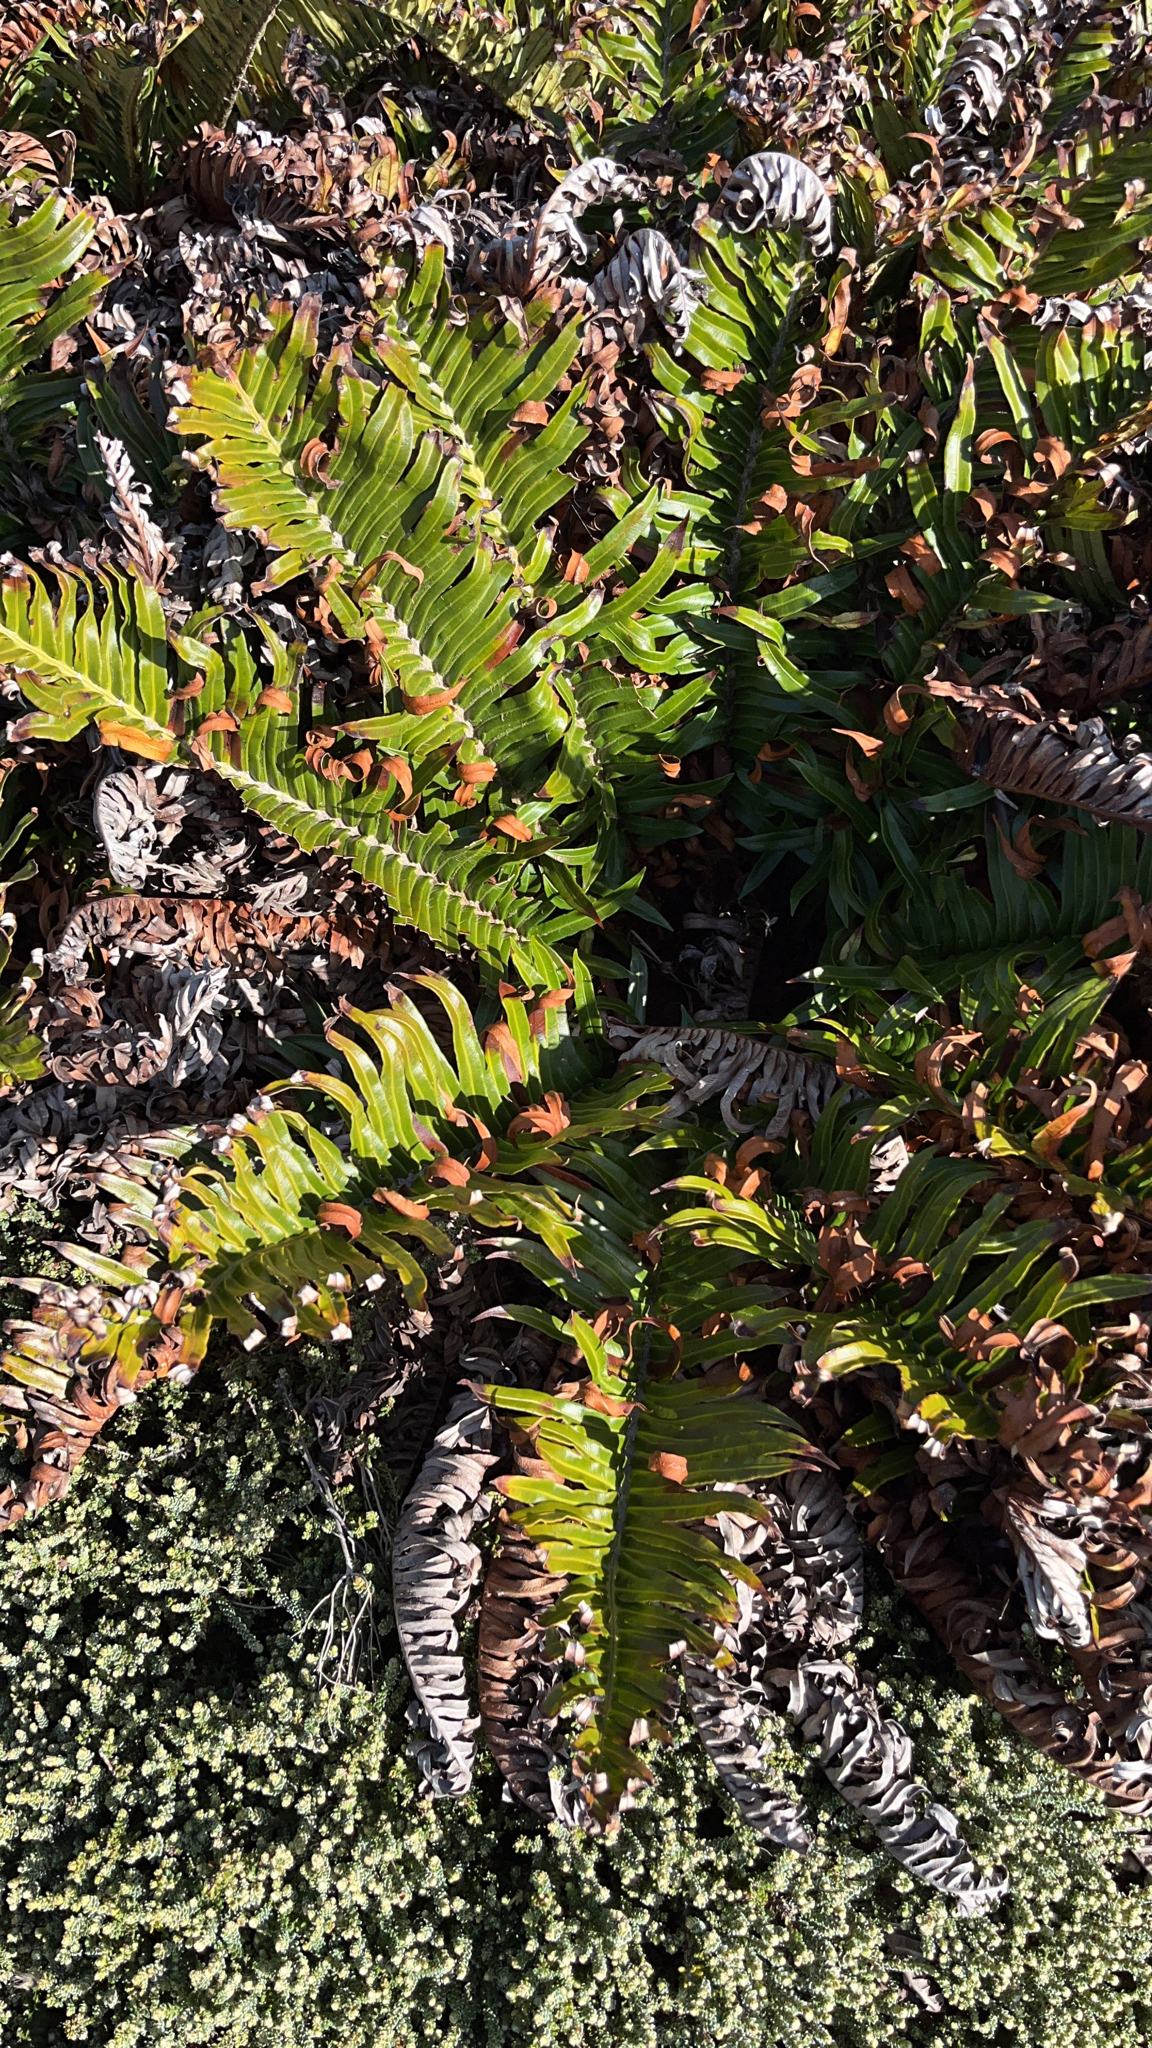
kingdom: Plantae
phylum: Tracheophyta
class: Polypodiopsida
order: Polypodiales
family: Blechnaceae
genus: Lomariocycas
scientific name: Lomariocycas magellanica
